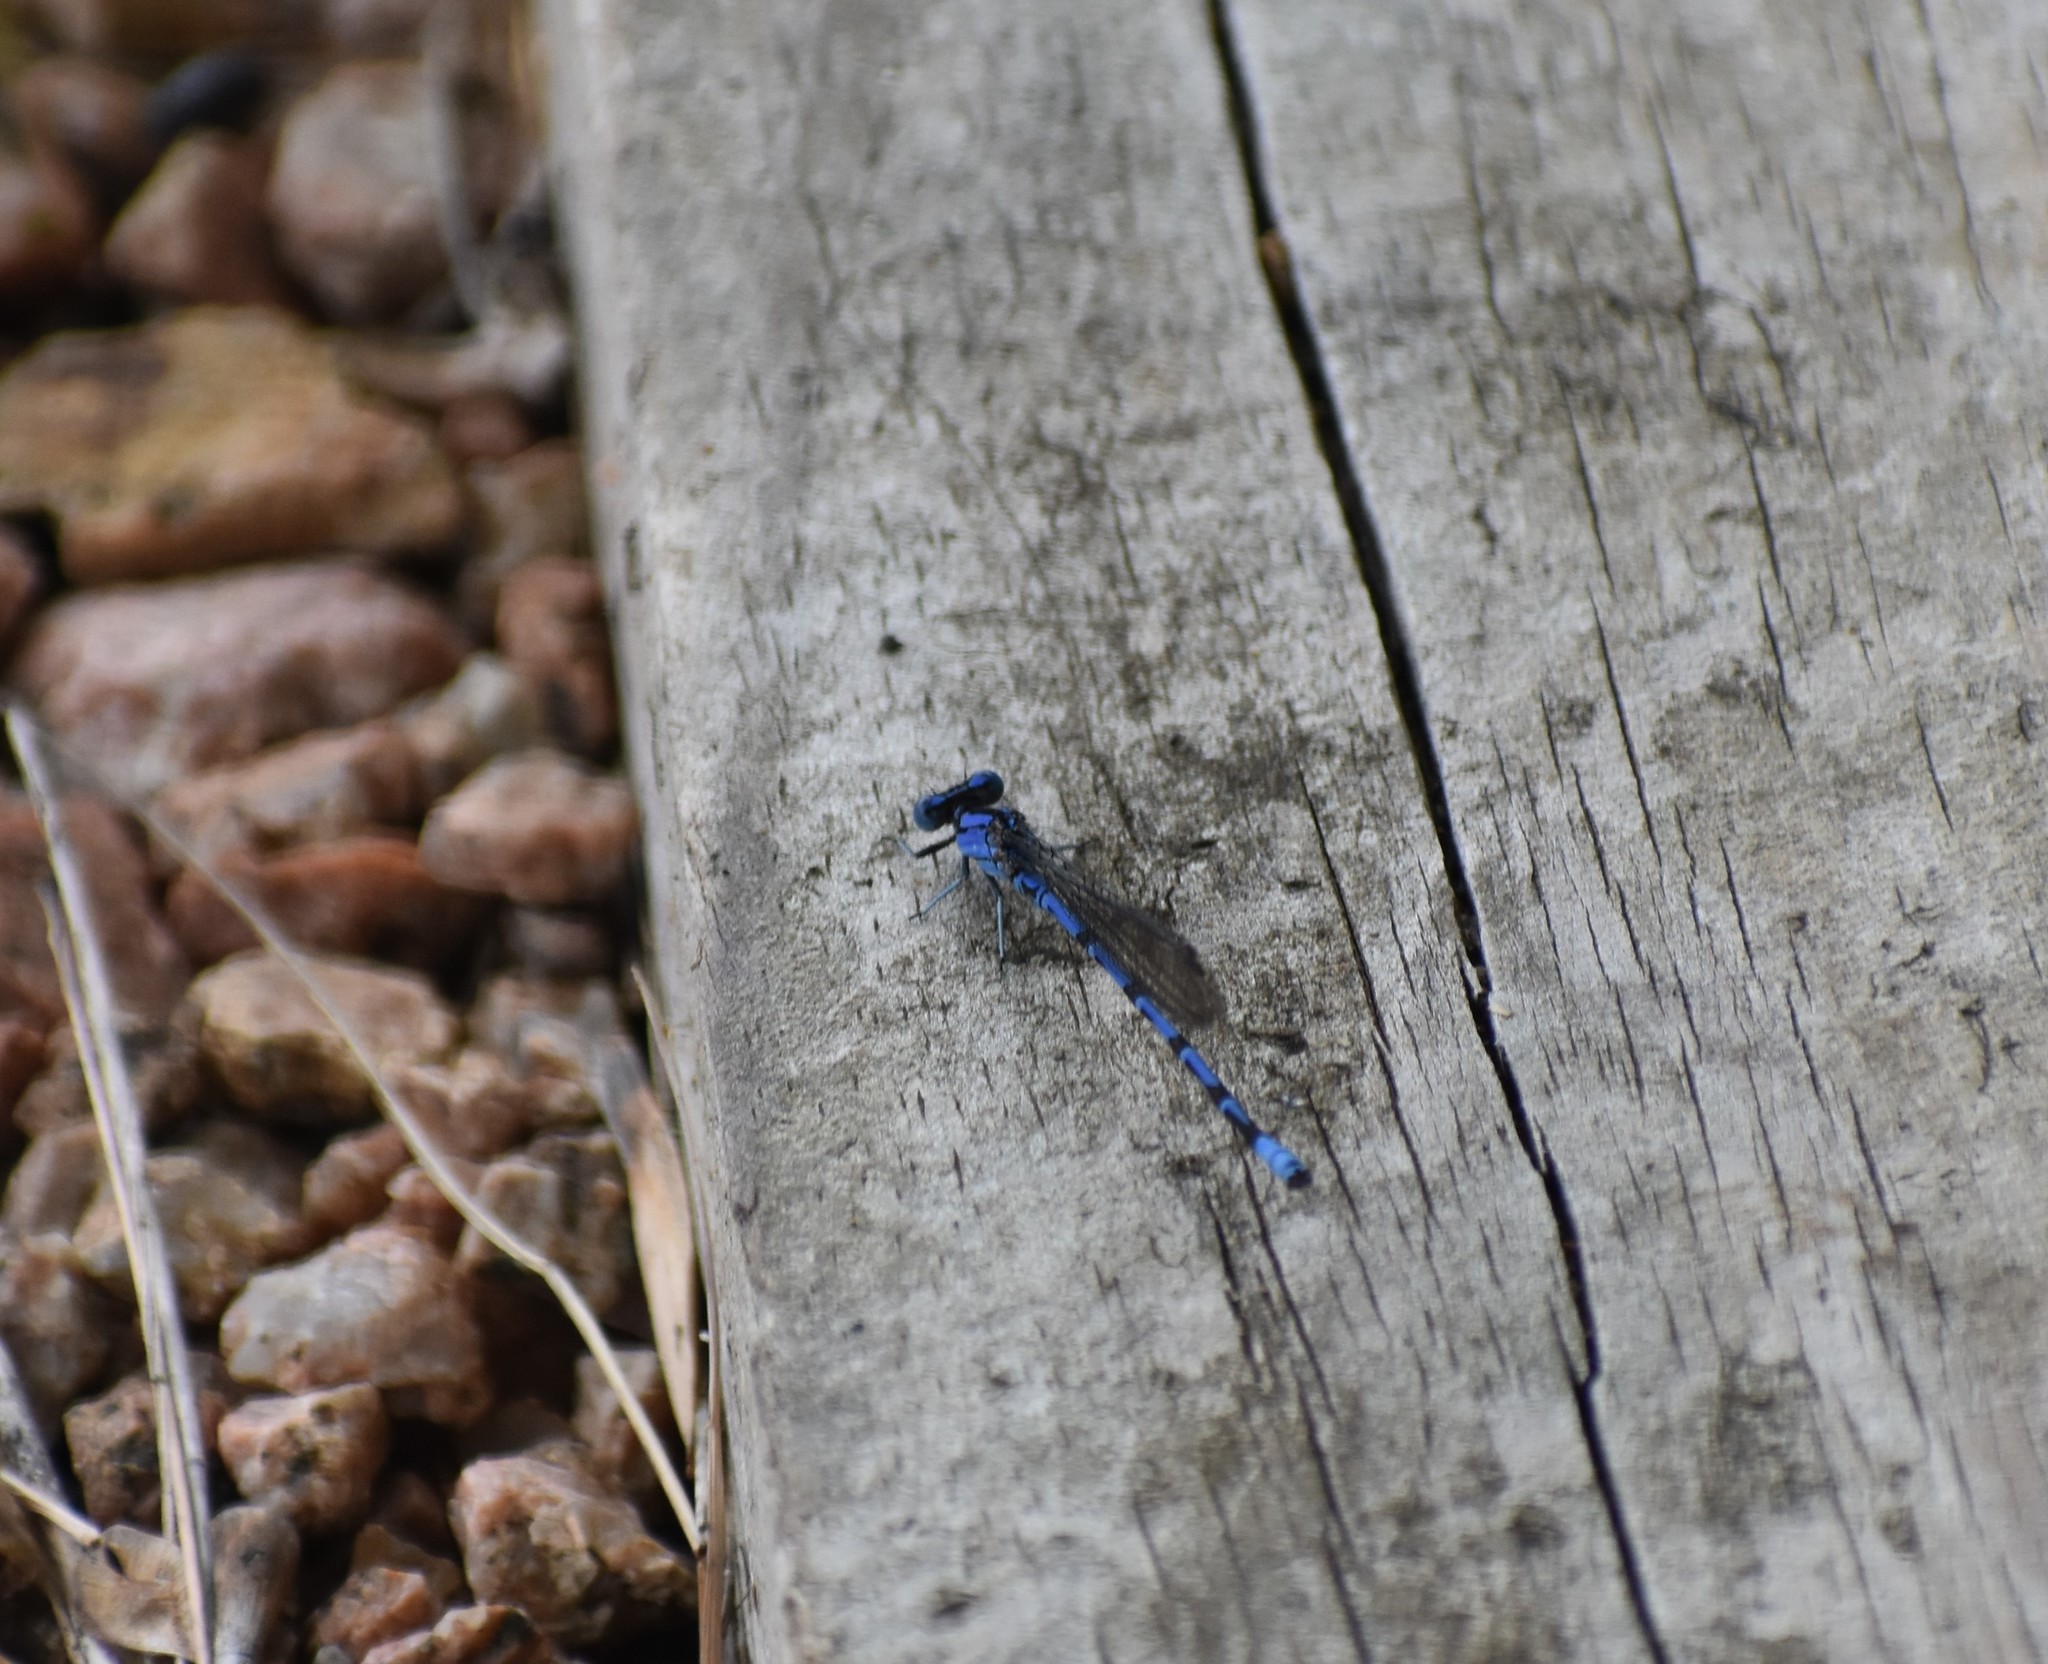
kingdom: Animalia
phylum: Arthropoda
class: Insecta
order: Odonata
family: Coenagrionidae
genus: Argia
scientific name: Argia funebris
